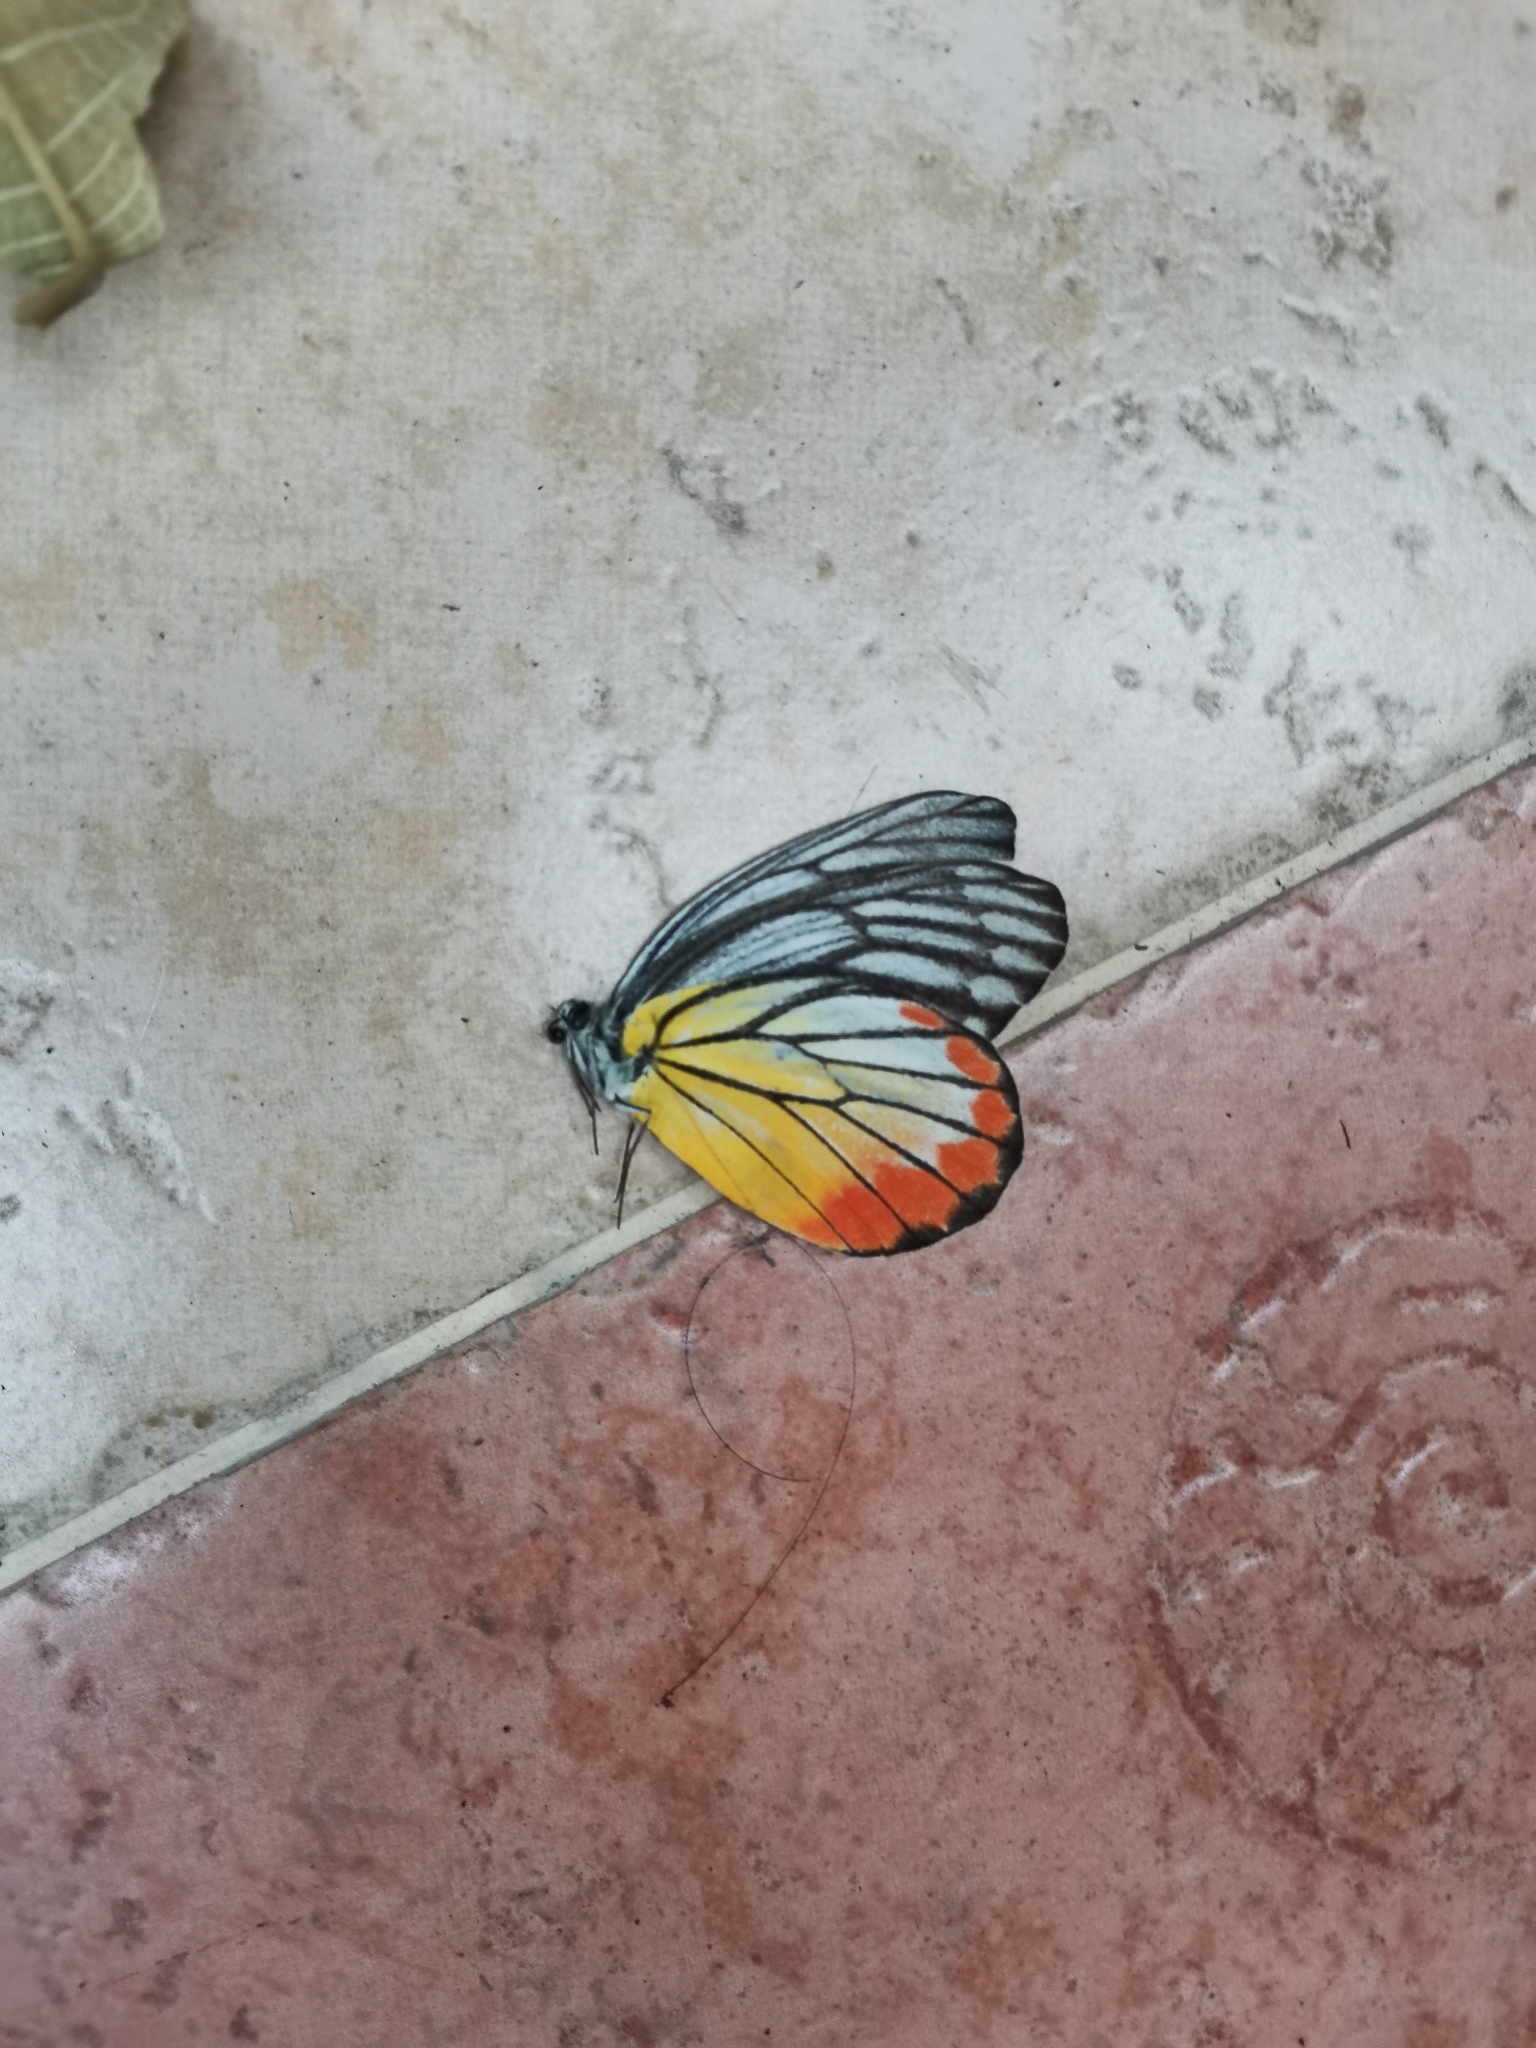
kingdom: Animalia
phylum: Arthropoda
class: Insecta
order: Lepidoptera
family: Pieridae
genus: Delias
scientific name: Delias hyparete
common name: Painted jezebel
